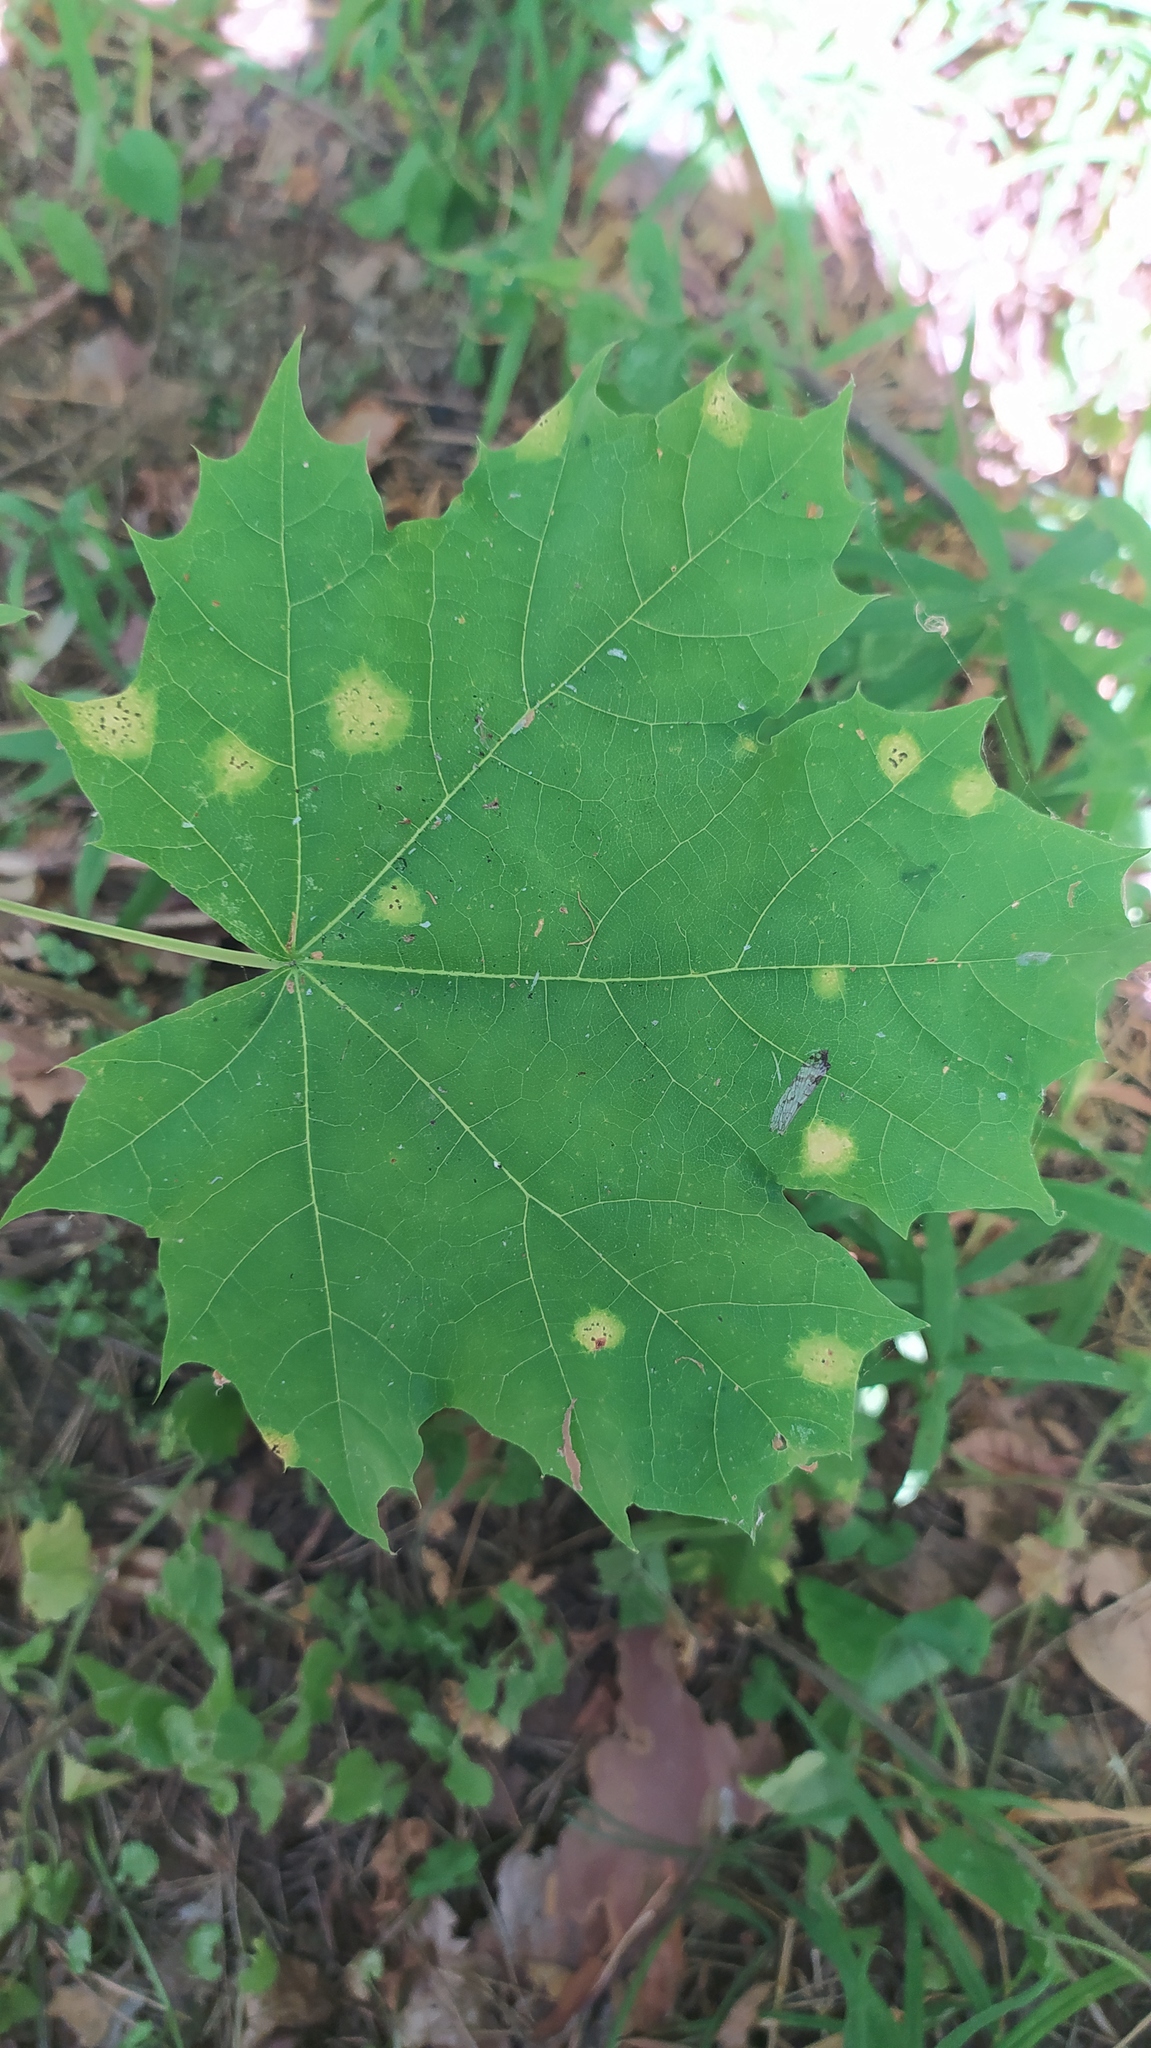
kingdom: Fungi
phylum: Ascomycota
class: Leotiomycetes
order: Rhytismatales
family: Rhytismataceae
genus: Rhytisma
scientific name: Rhytisma acerinum
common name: European tar spot
